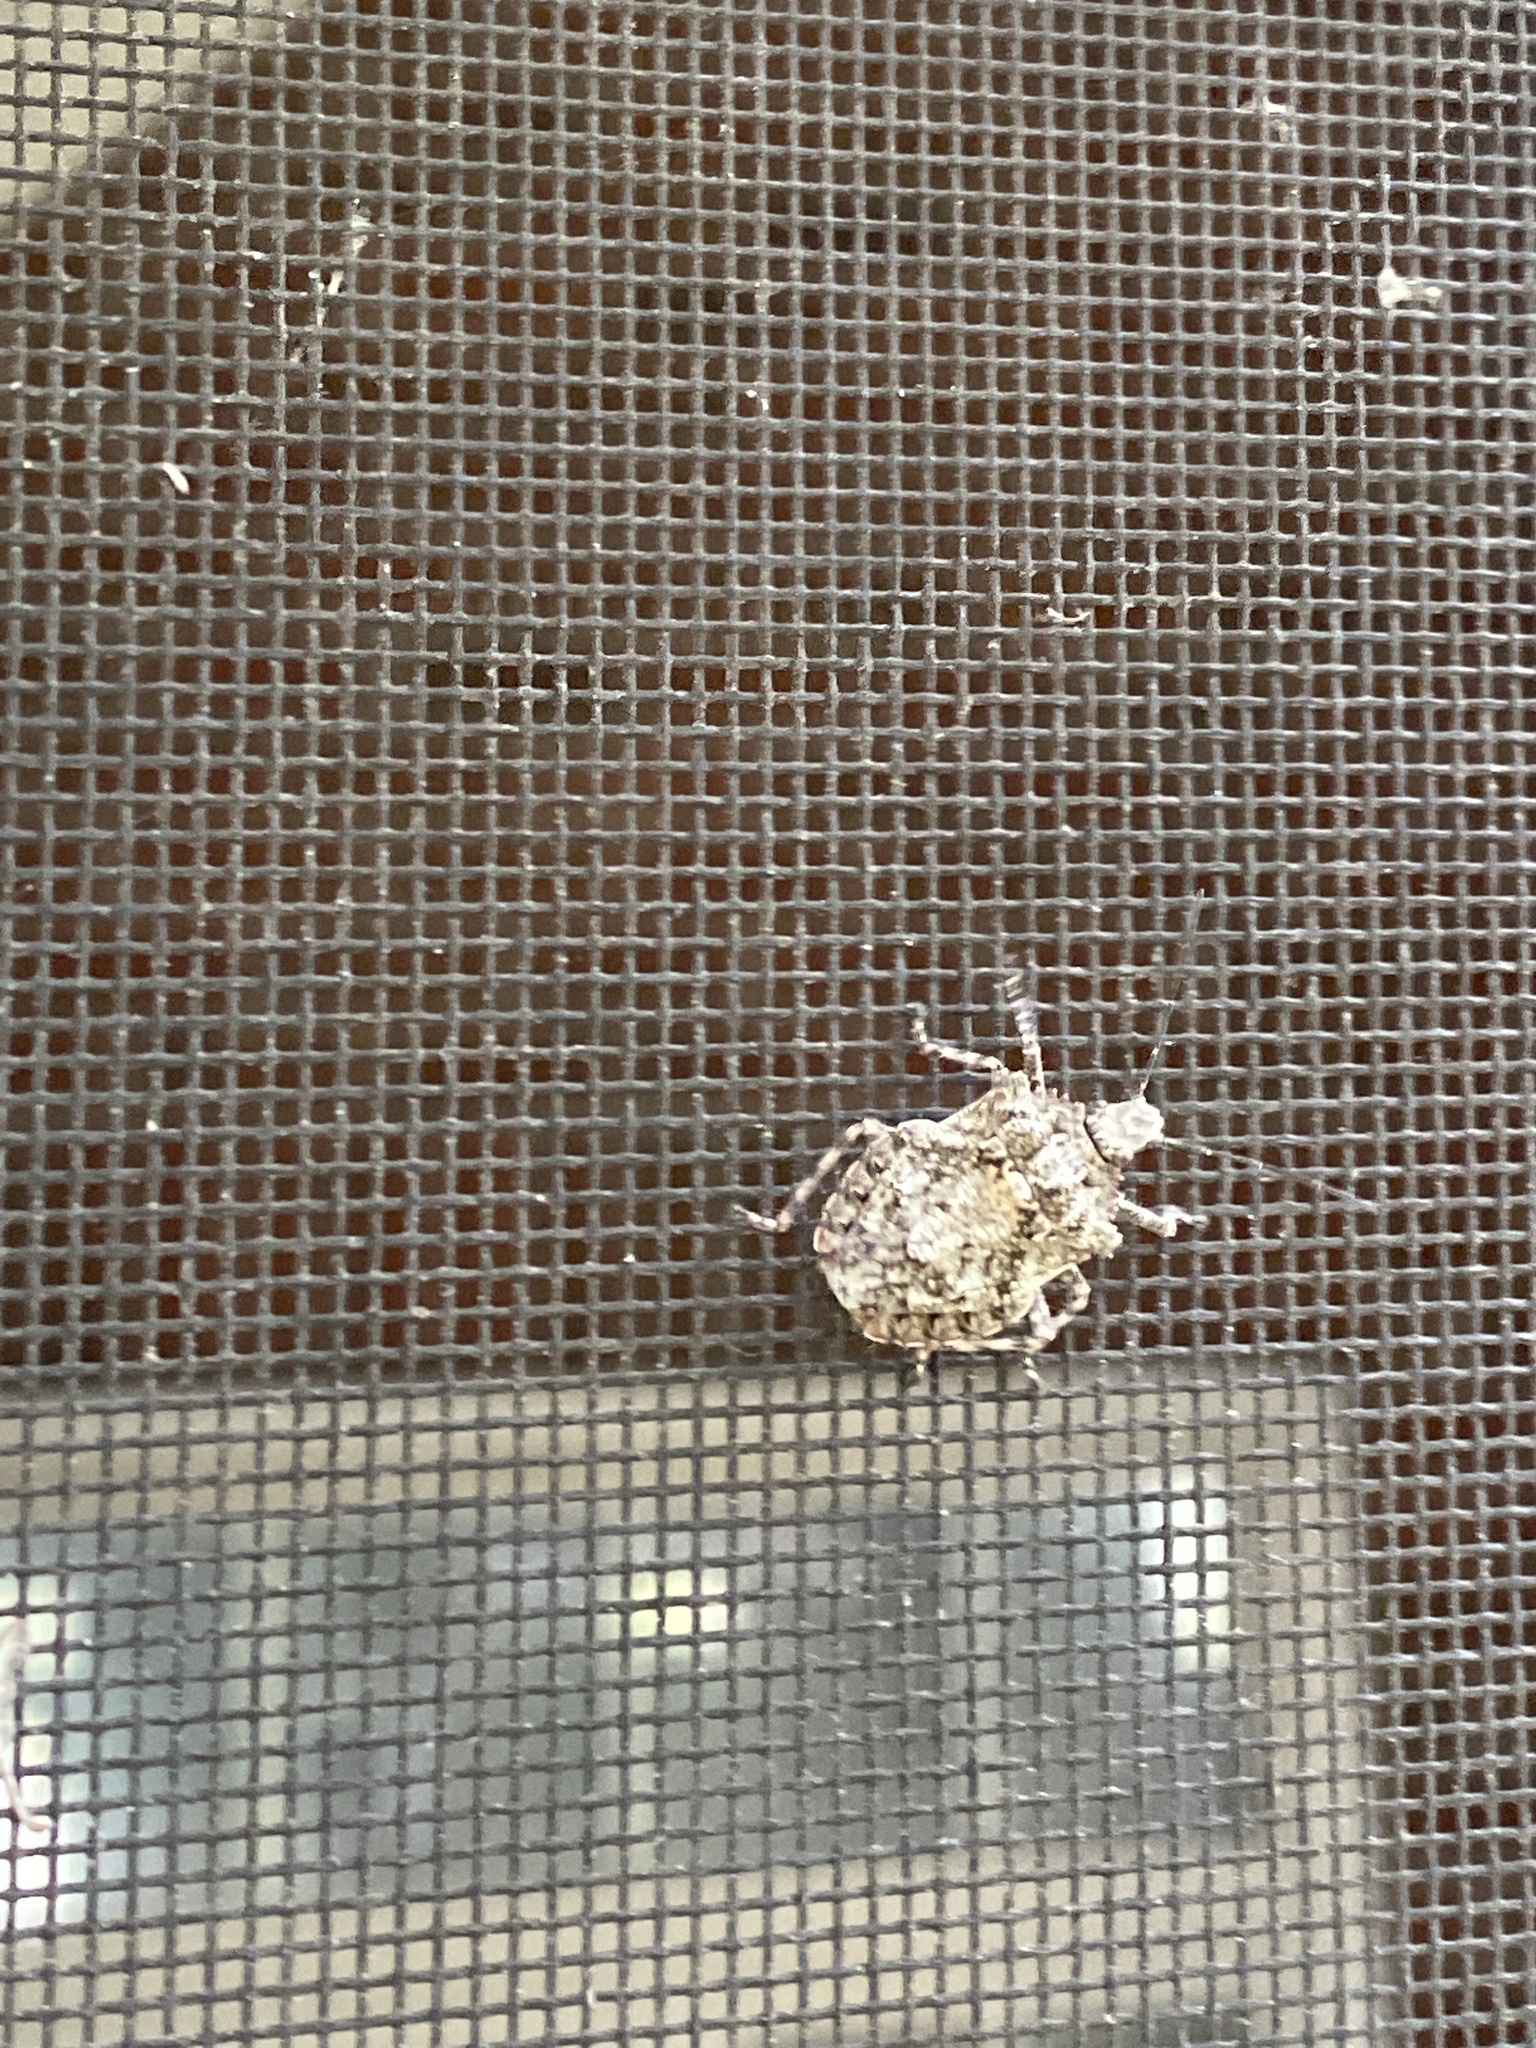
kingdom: Animalia
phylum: Arthropoda
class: Insecta
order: Hemiptera
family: Pentatomidae
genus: Brochymena
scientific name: Brochymena arborea
